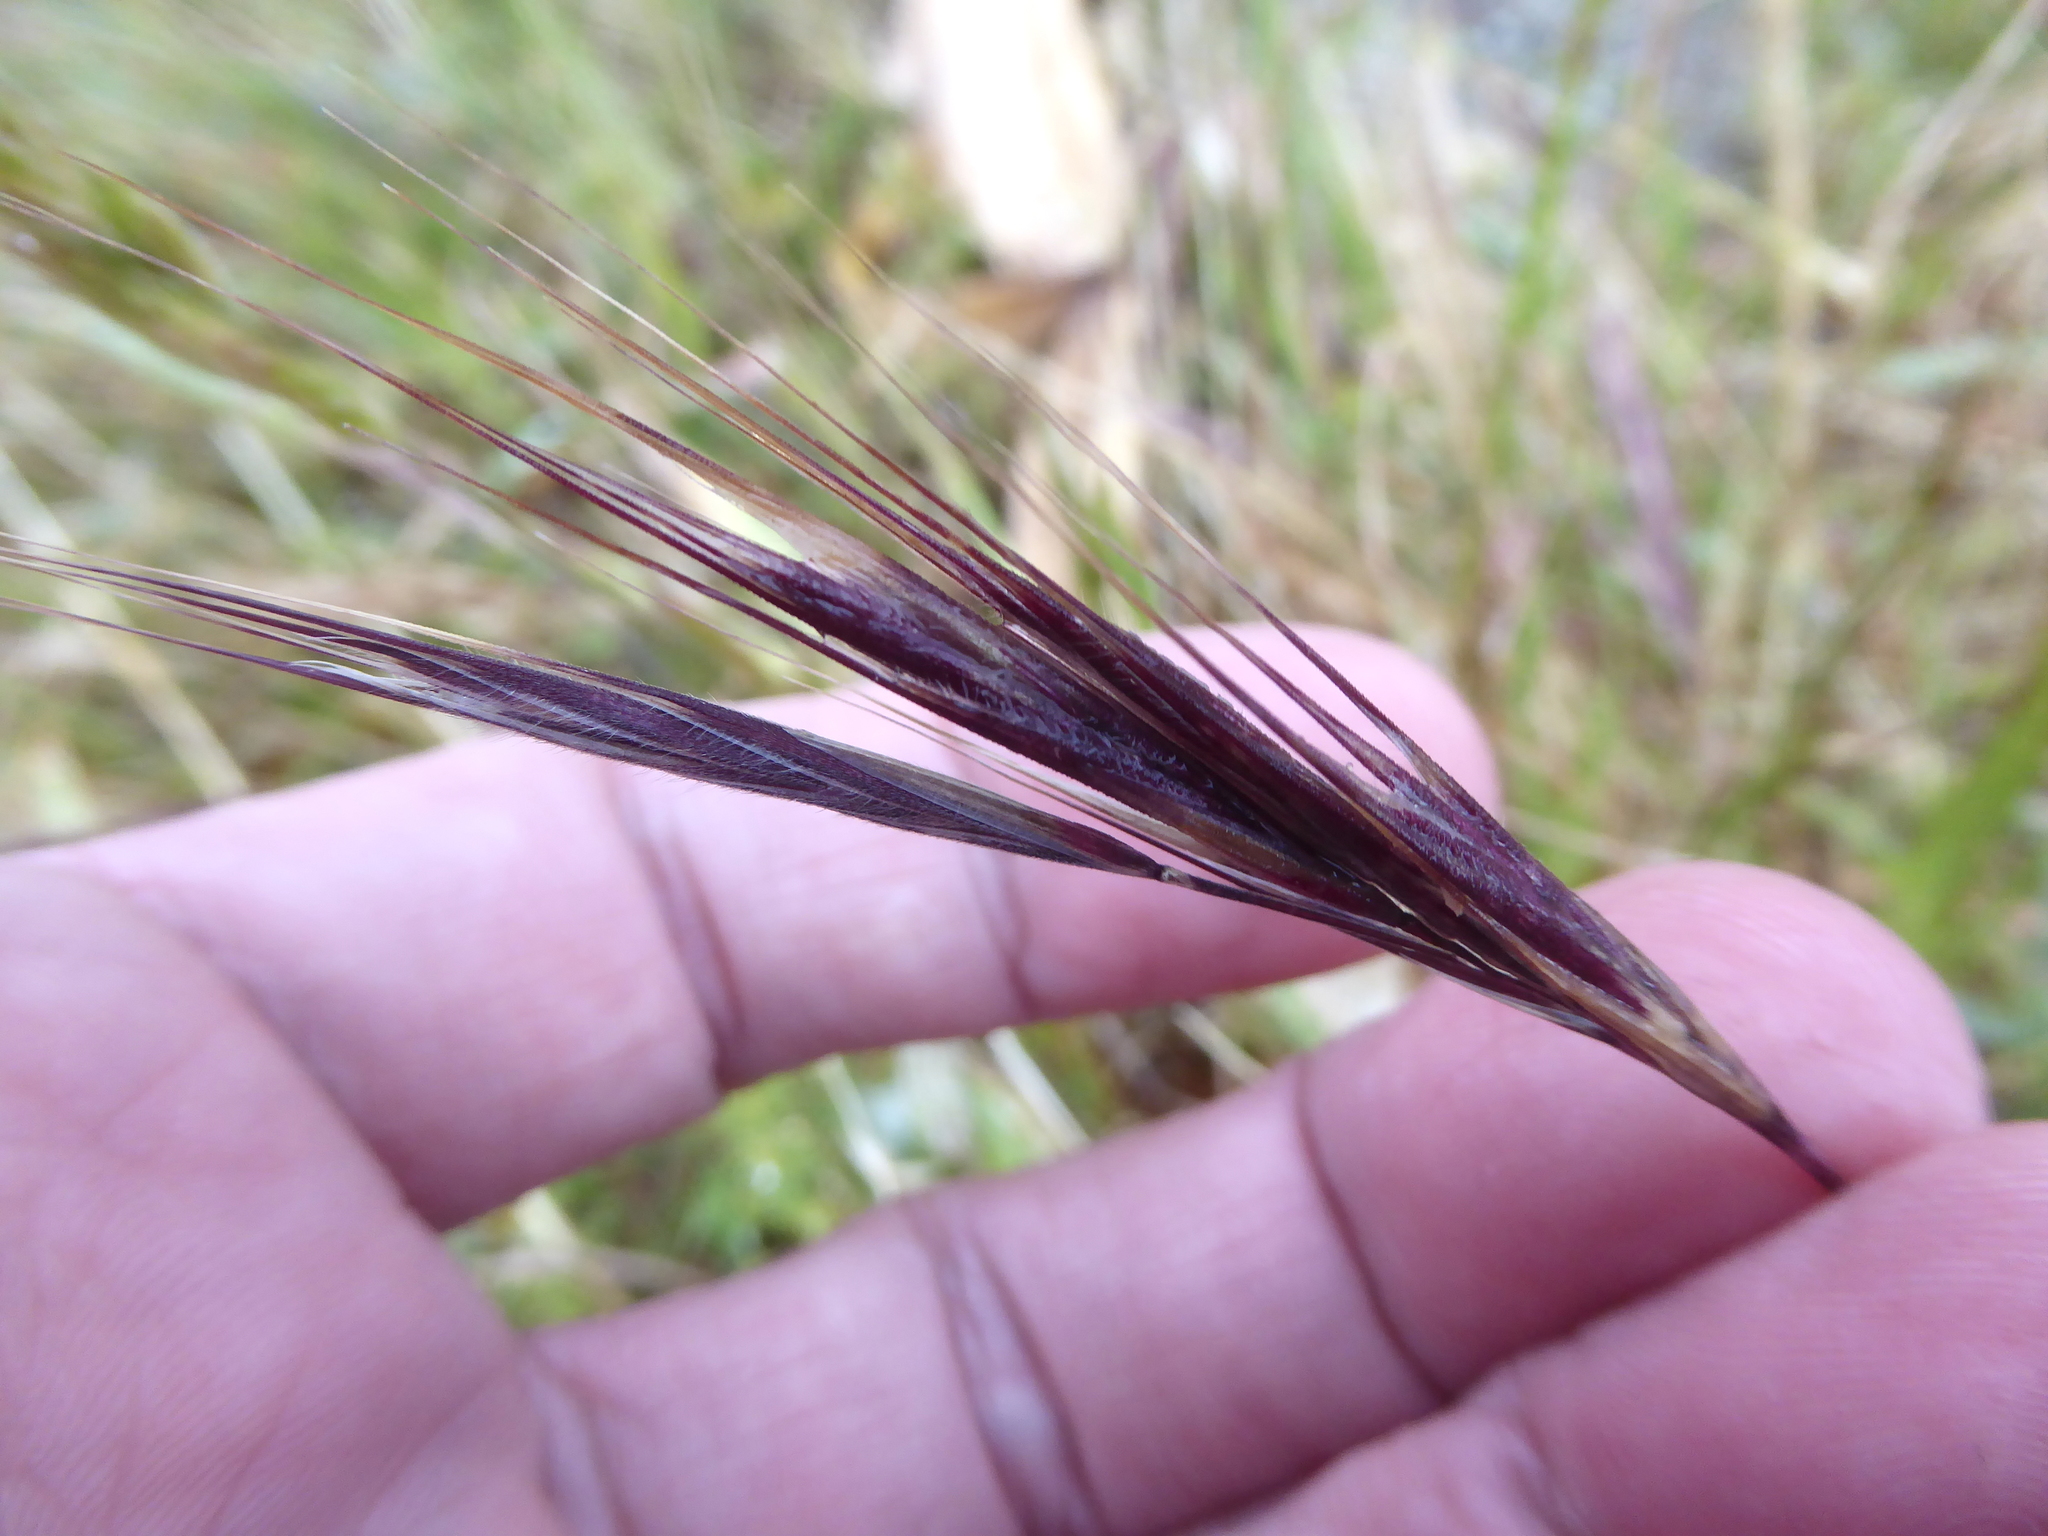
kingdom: Plantae
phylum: Tracheophyta
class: Liliopsida
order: Poales
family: Poaceae
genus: Bromus
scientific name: Bromus diandrus
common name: Ripgut brome
